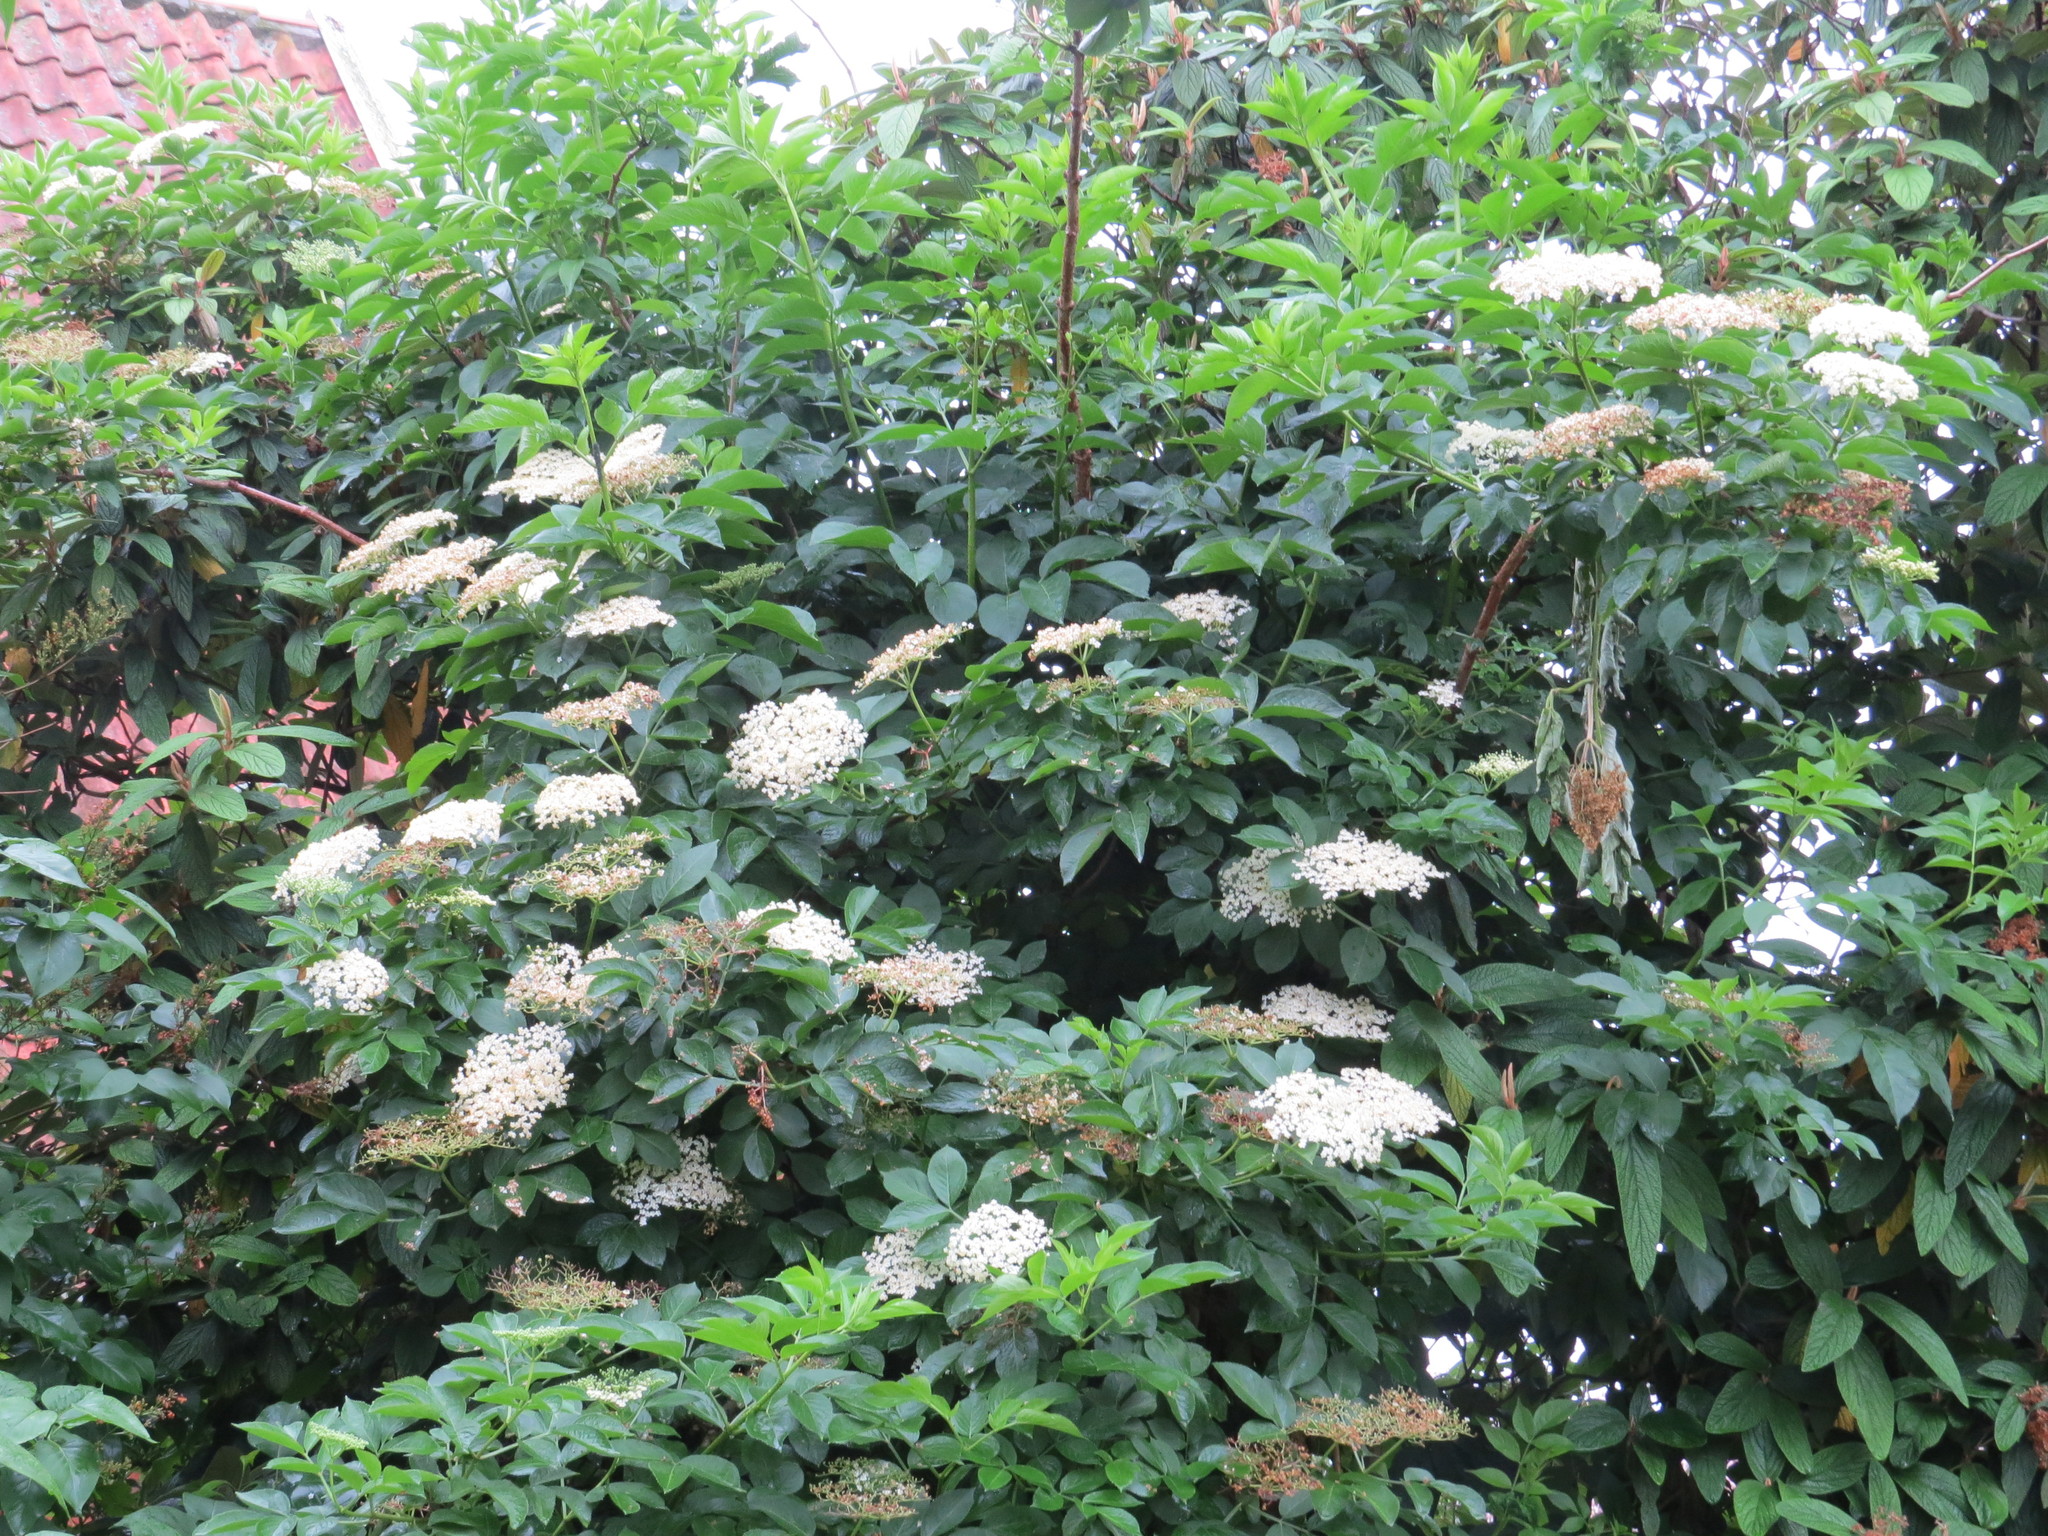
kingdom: Plantae
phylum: Tracheophyta
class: Magnoliopsida
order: Dipsacales
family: Viburnaceae
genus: Sambucus
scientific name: Sambucus nigra
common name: Elder
